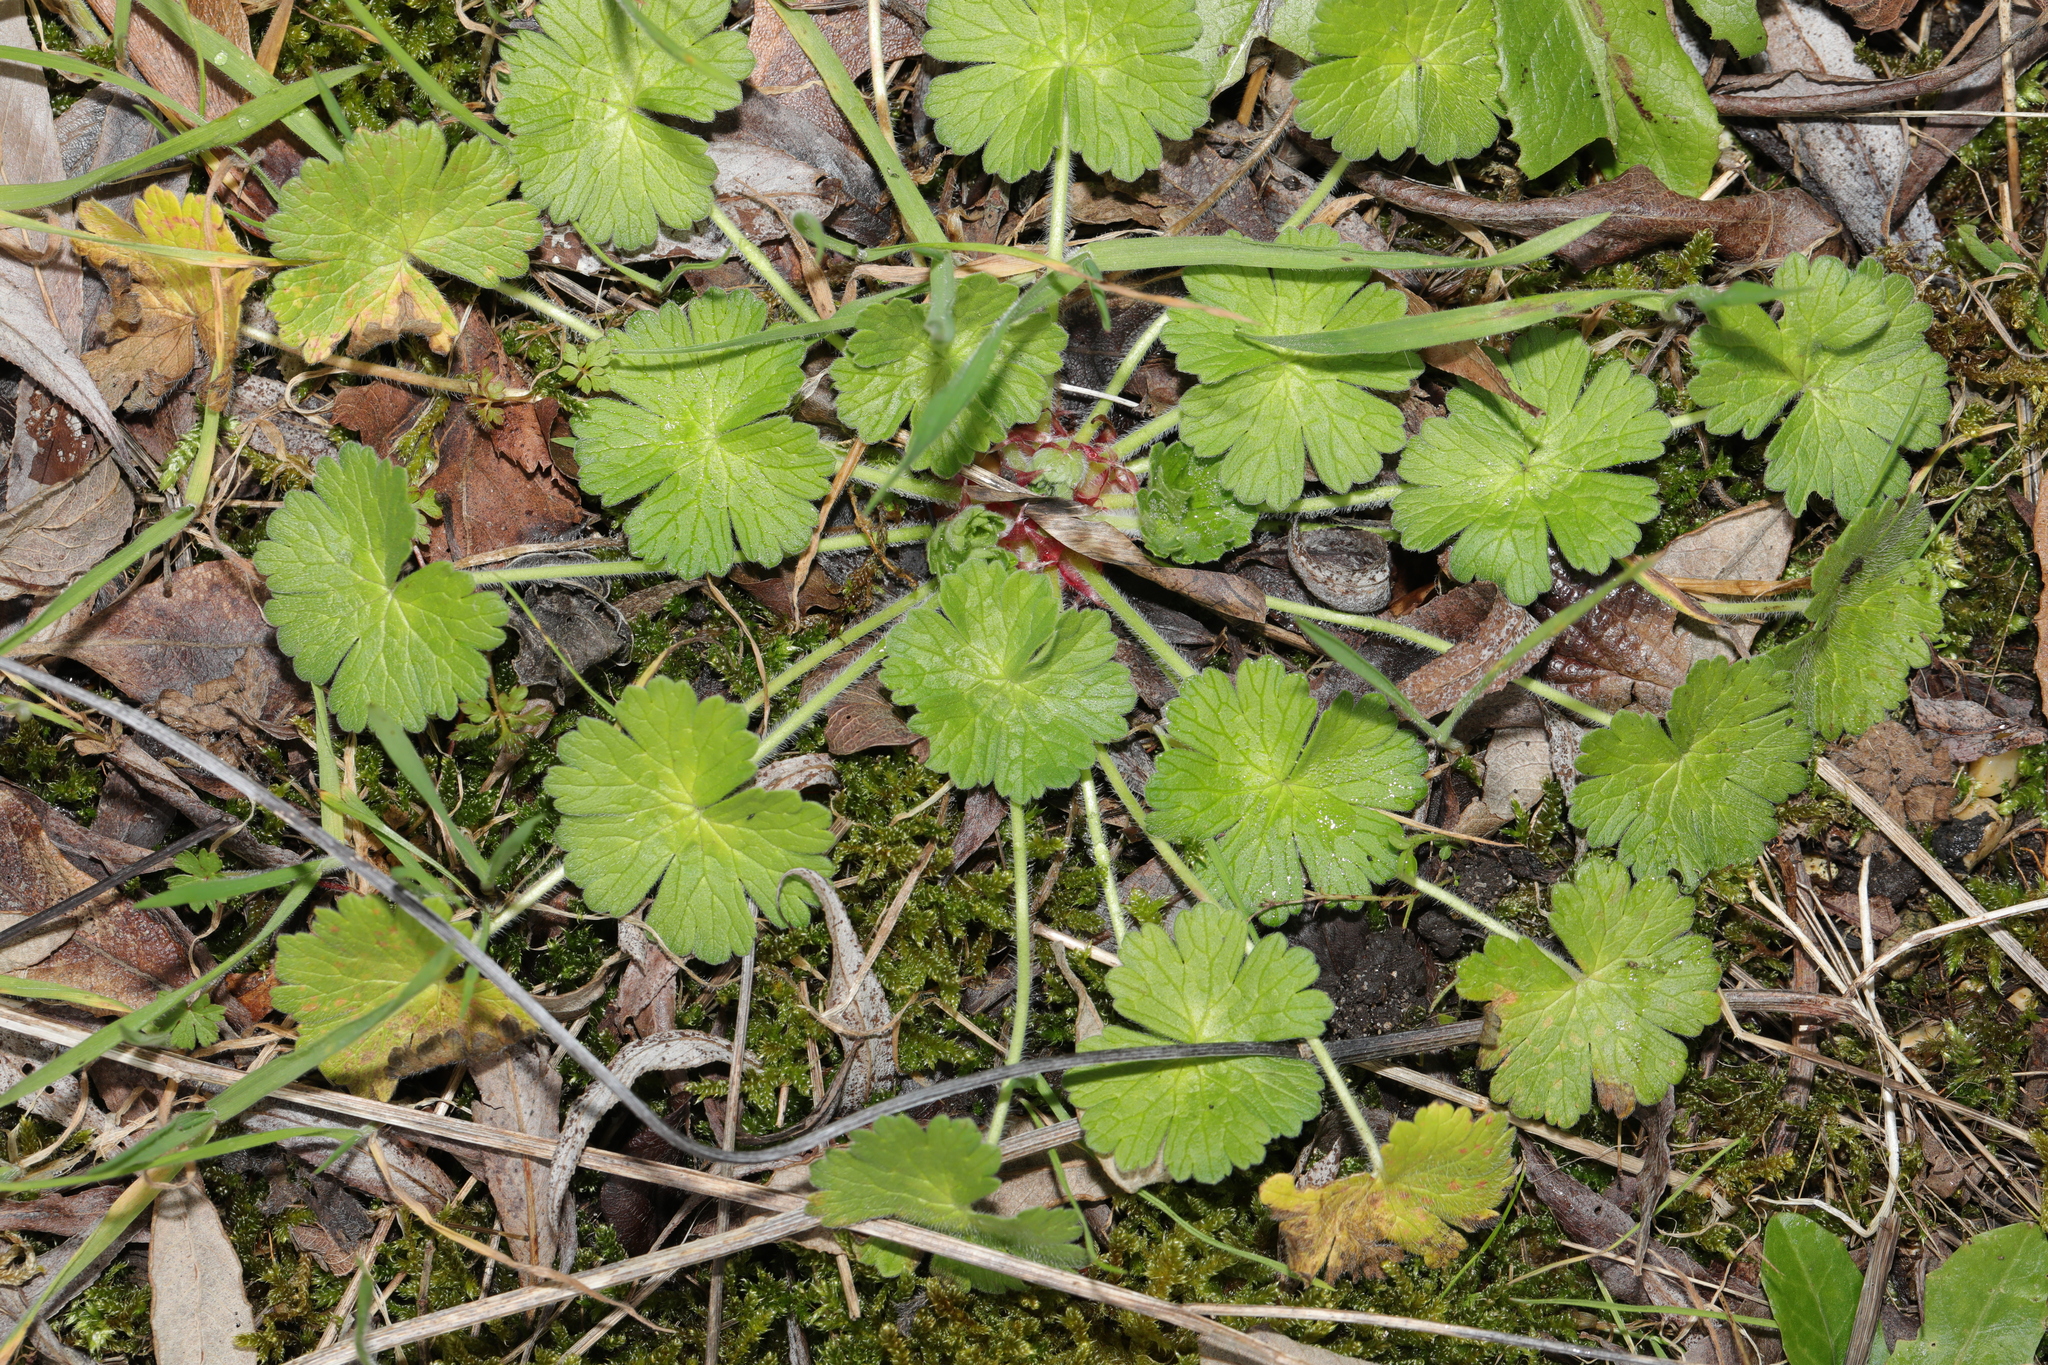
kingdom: Plantae
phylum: Tracheophyta
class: Magnoliopsida
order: Geraniales
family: Geraniaceae
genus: Geranium
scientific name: Geranium molle
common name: Dove's-foot crane's-bill
